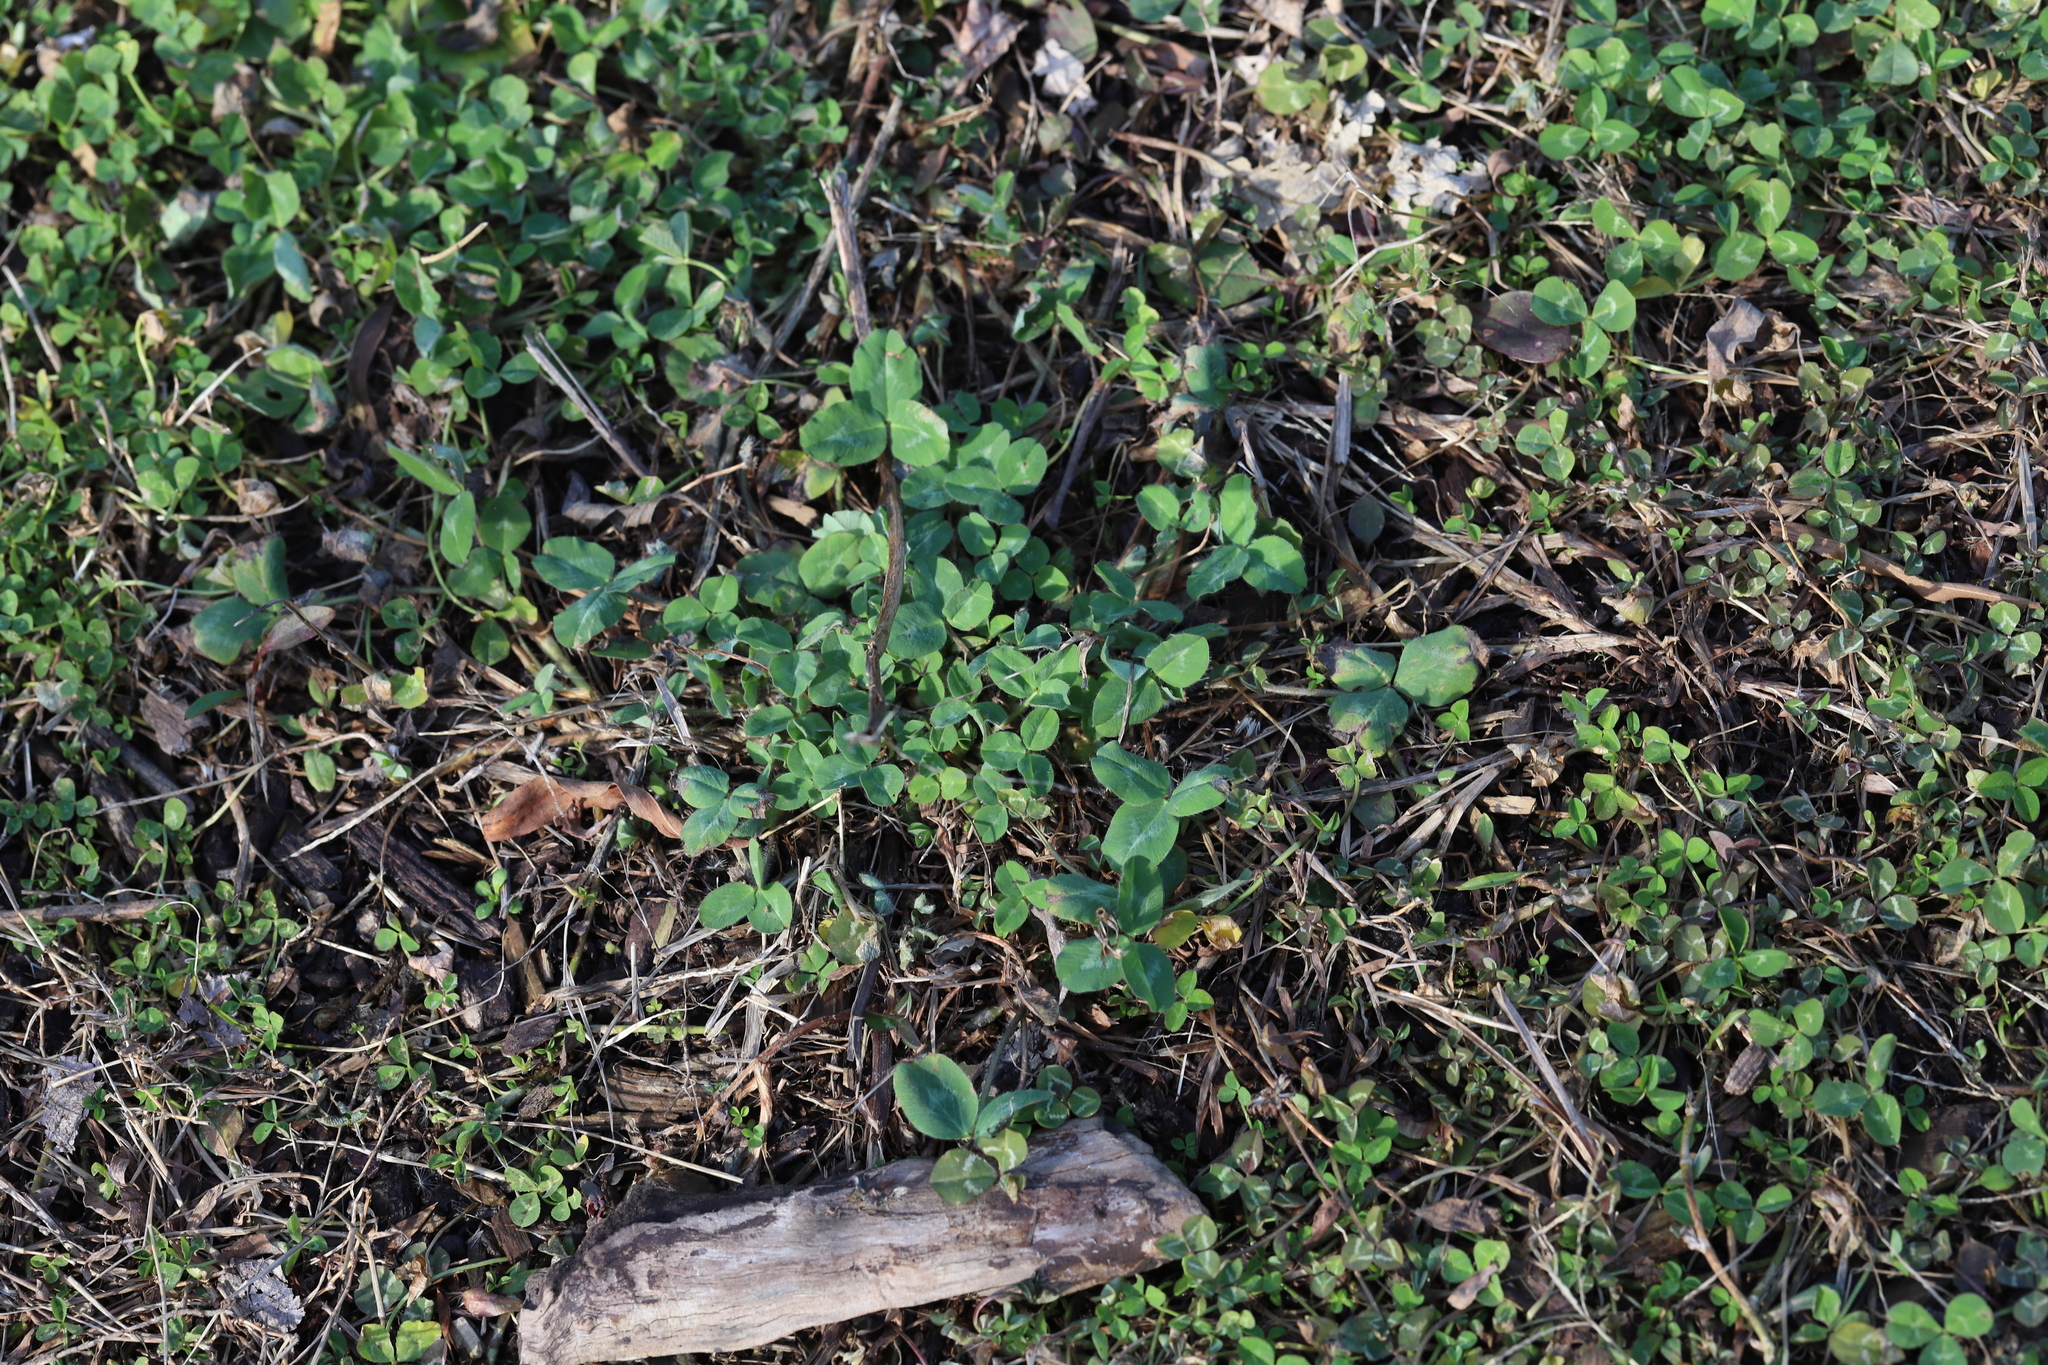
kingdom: Plantae
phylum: Tracheophyta
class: Magnoliopsida
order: Fabales
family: Fabaceae
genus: Trifolium
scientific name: Trifolium repens
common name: White clover
